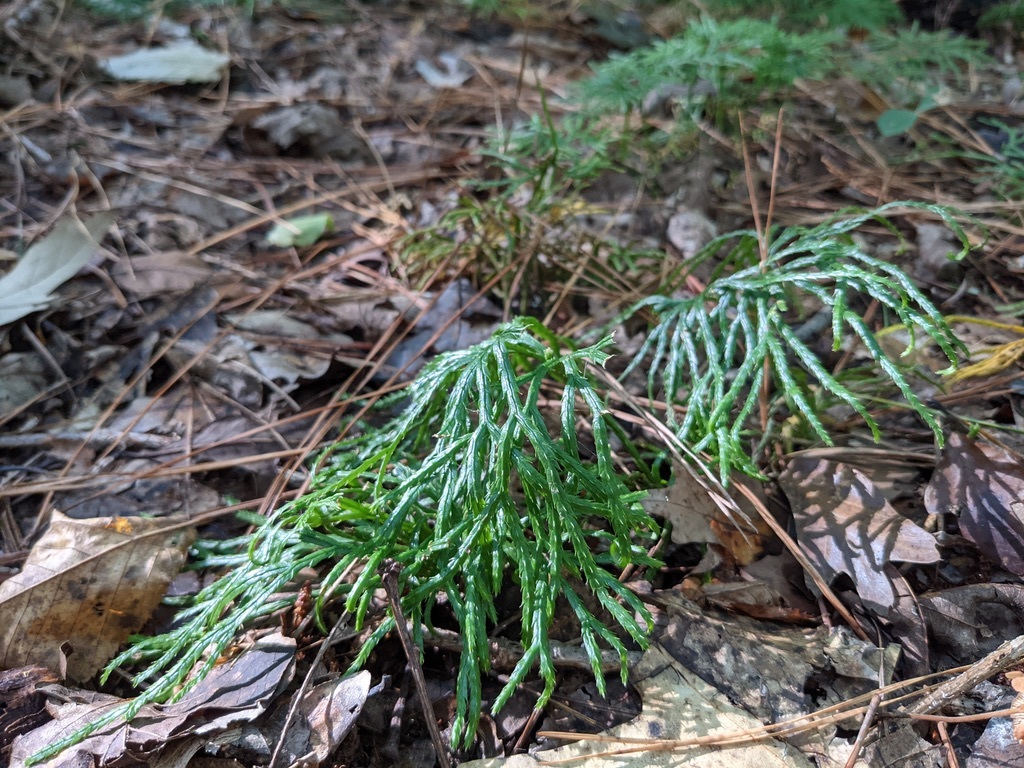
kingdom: Plantae
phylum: Tracheophyta
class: Lycopodiopsida
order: Lycopodiales
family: Lycopodiaceae
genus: Diphasiastrum
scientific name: Diphasiastrum digitatum
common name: Southern running-pine
